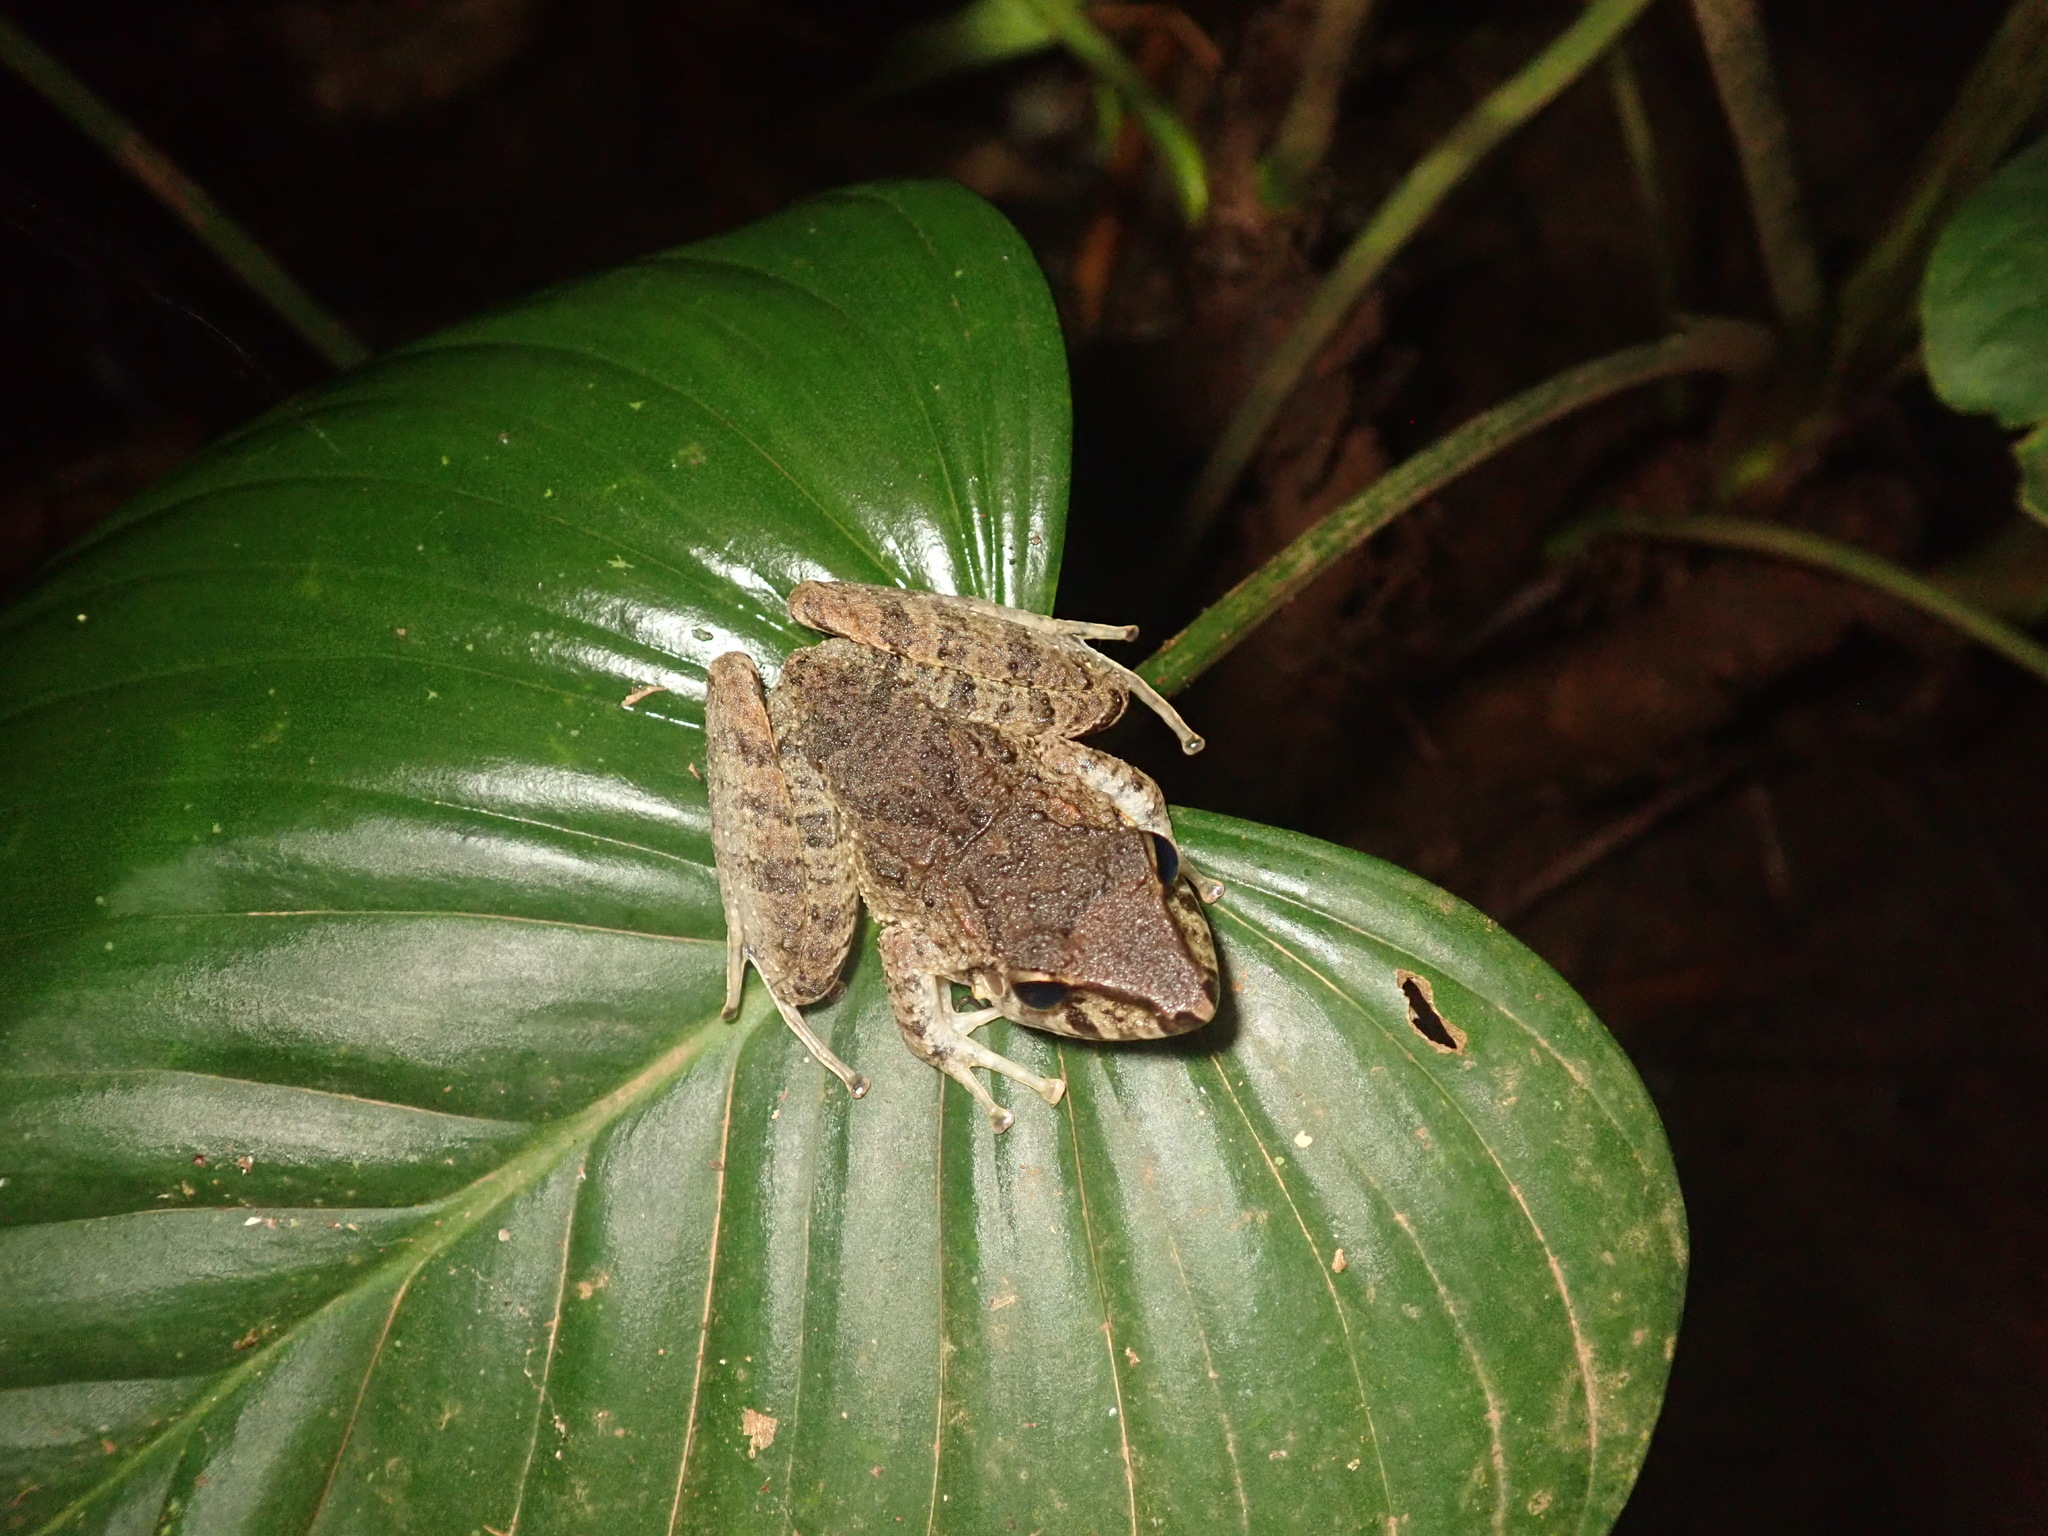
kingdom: Animalia
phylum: Chordata
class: Amphibia
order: Anura
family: Craugastoridae
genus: Craugastor
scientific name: Craugastor fitzingeri
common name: Fitzinger's robber frog
